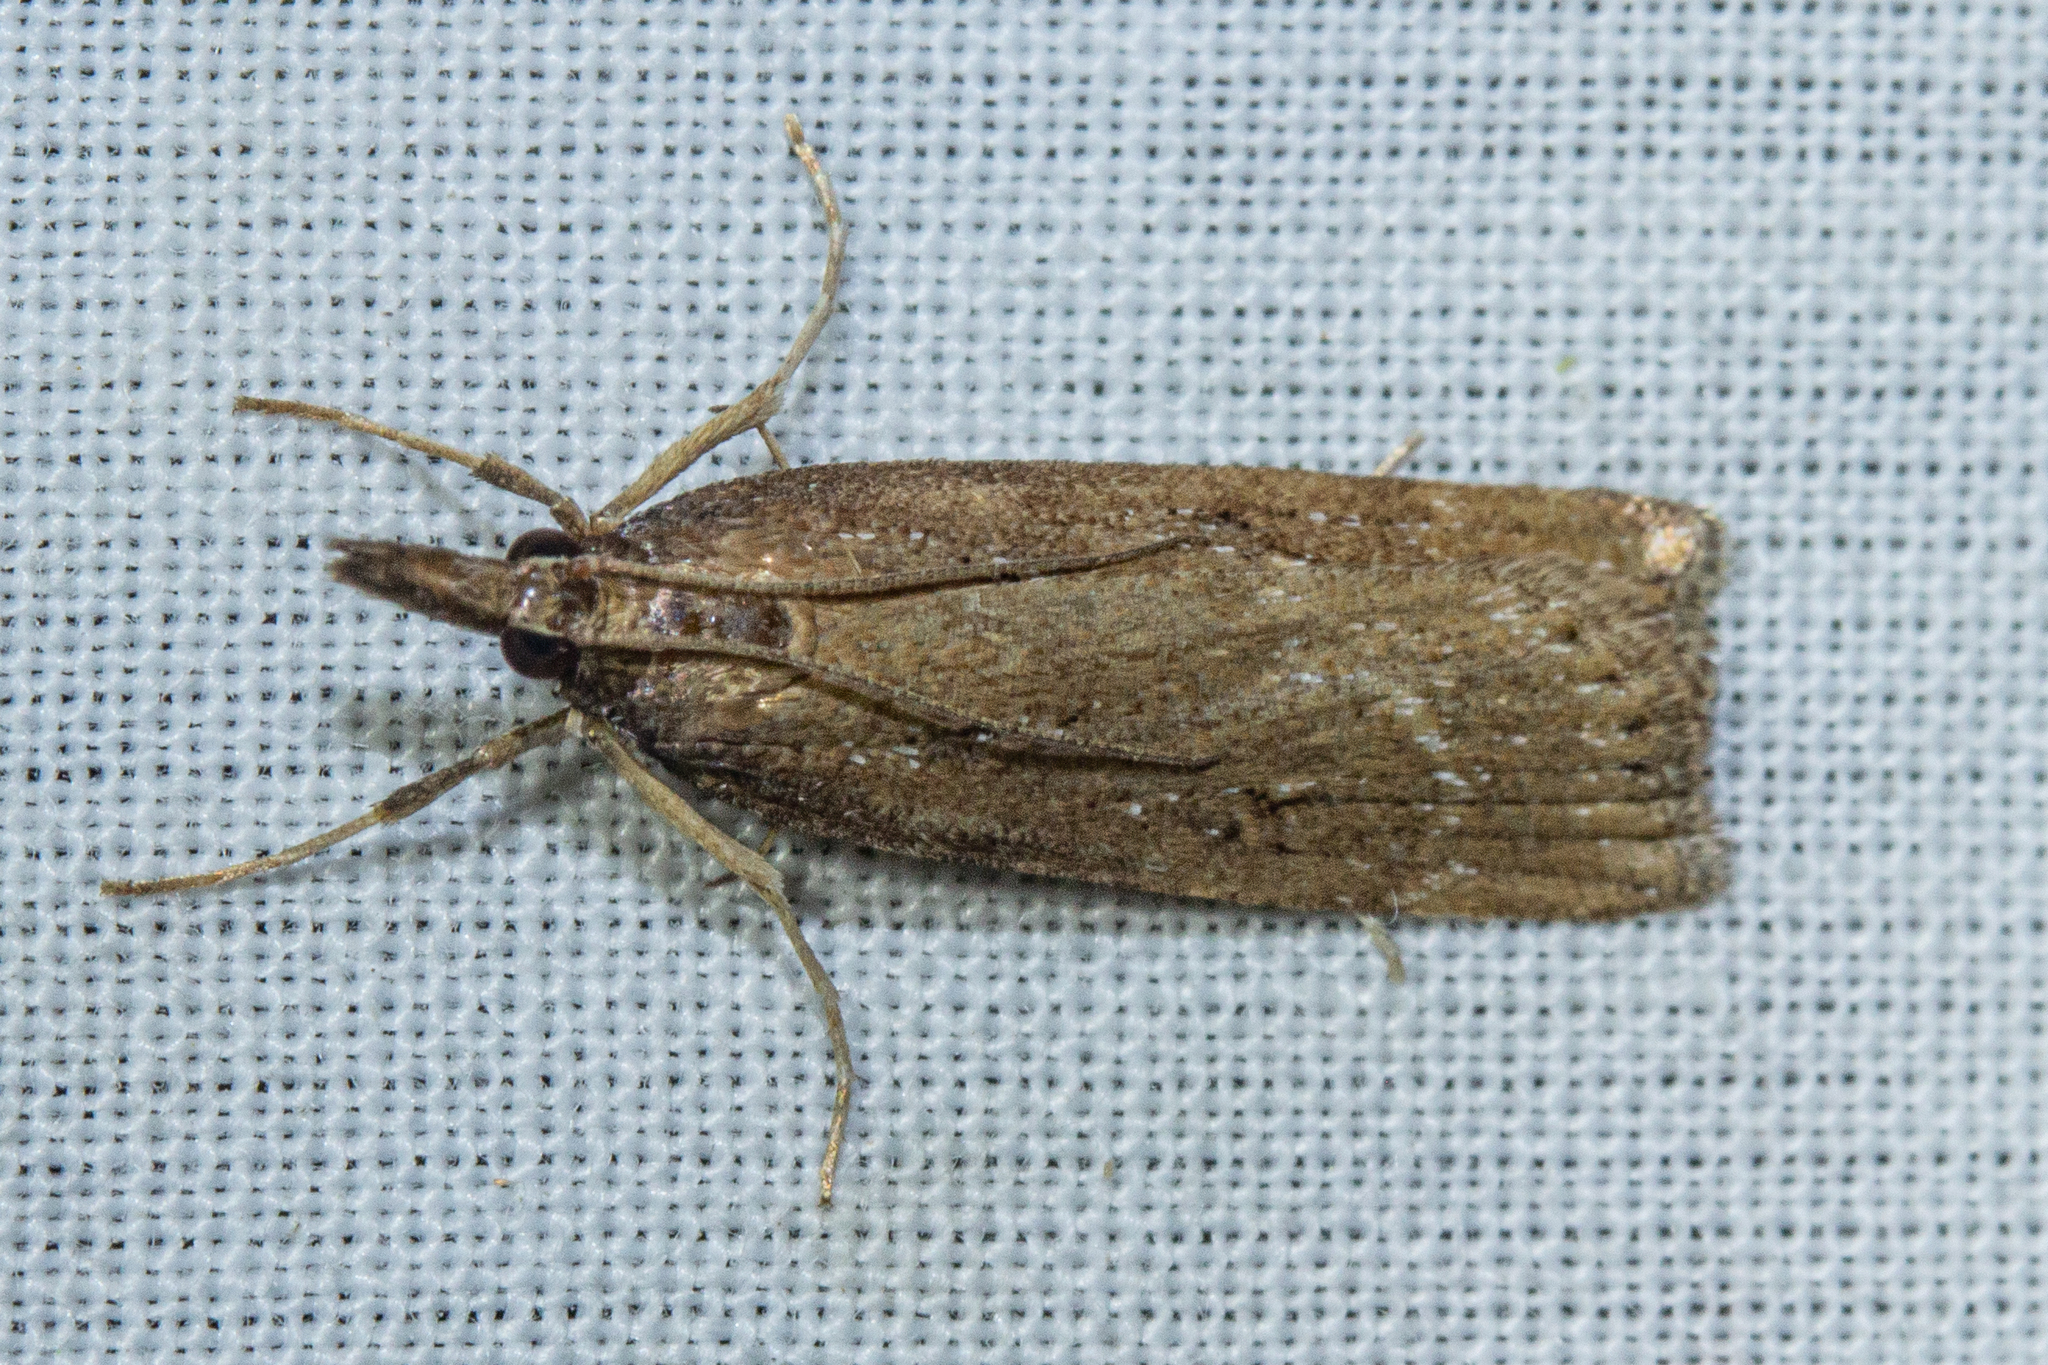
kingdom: Animalia
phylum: Arthropoda
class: Insecta
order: Lepidoptera
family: Crambidae
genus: Eudonia
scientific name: Eudonia octophora
